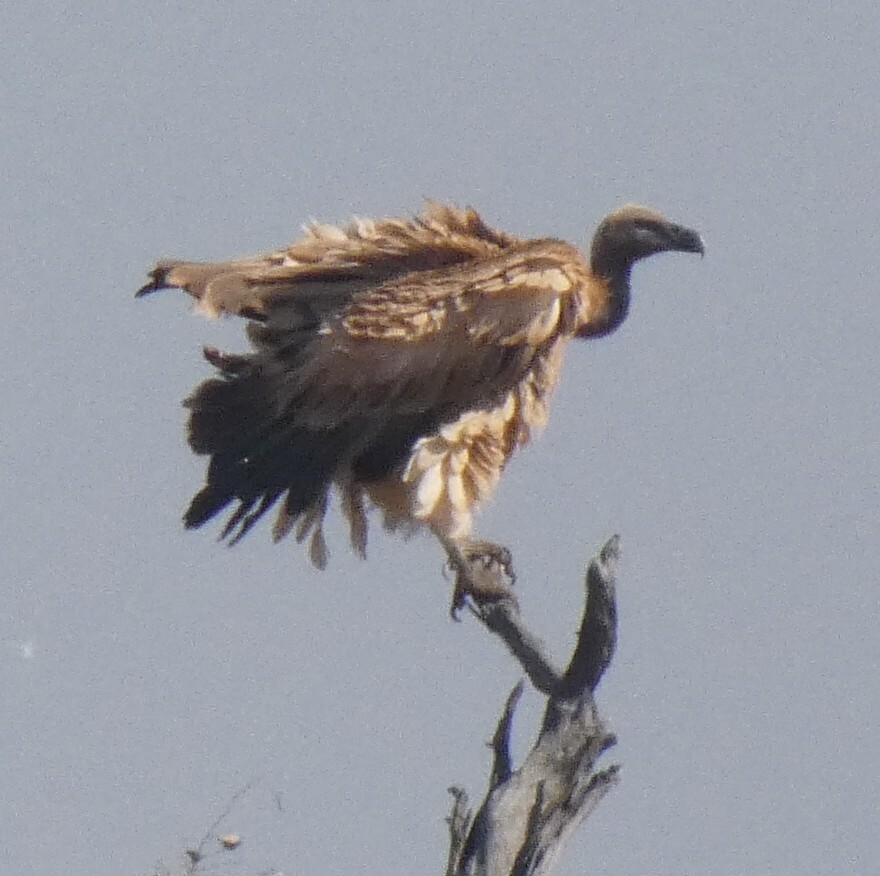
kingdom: Animalia
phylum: Chordata
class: Aves
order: Accipitriformes
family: Accipitridae
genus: Gyps
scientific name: Gyps africanus
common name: White-backed vulture
